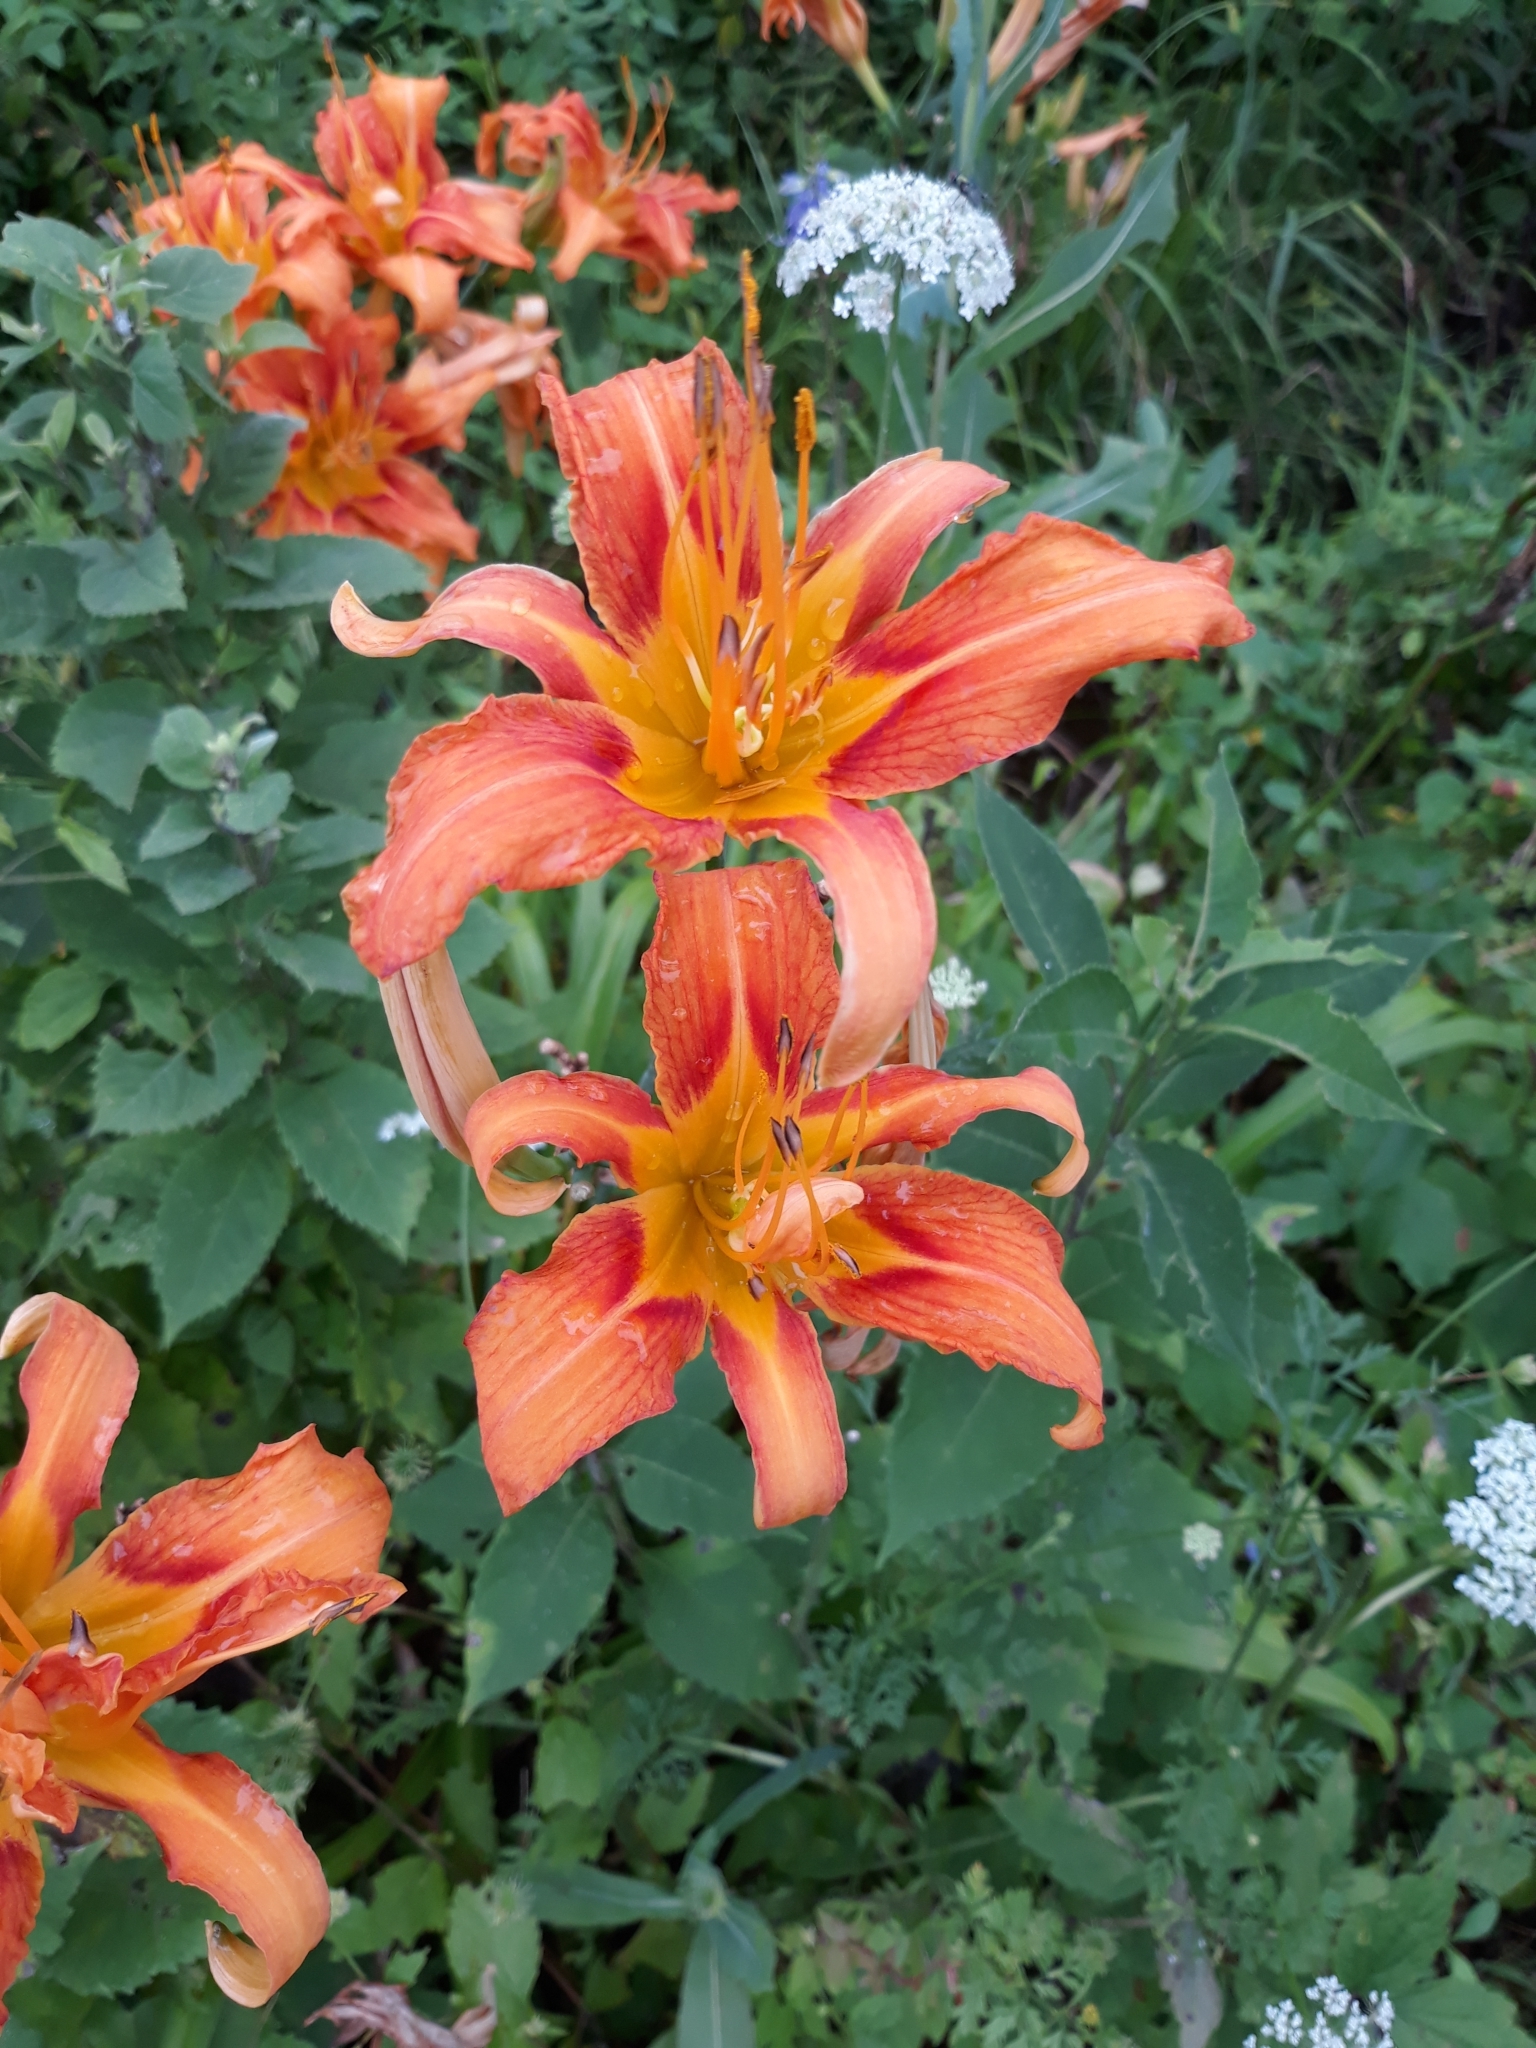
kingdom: Plantae
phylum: Tracheophyta
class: Liliopsida
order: Asparagales
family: Asphodelaceae
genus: Hemerocallis
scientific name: Hemerocallis fulva
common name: Orange day-lily
